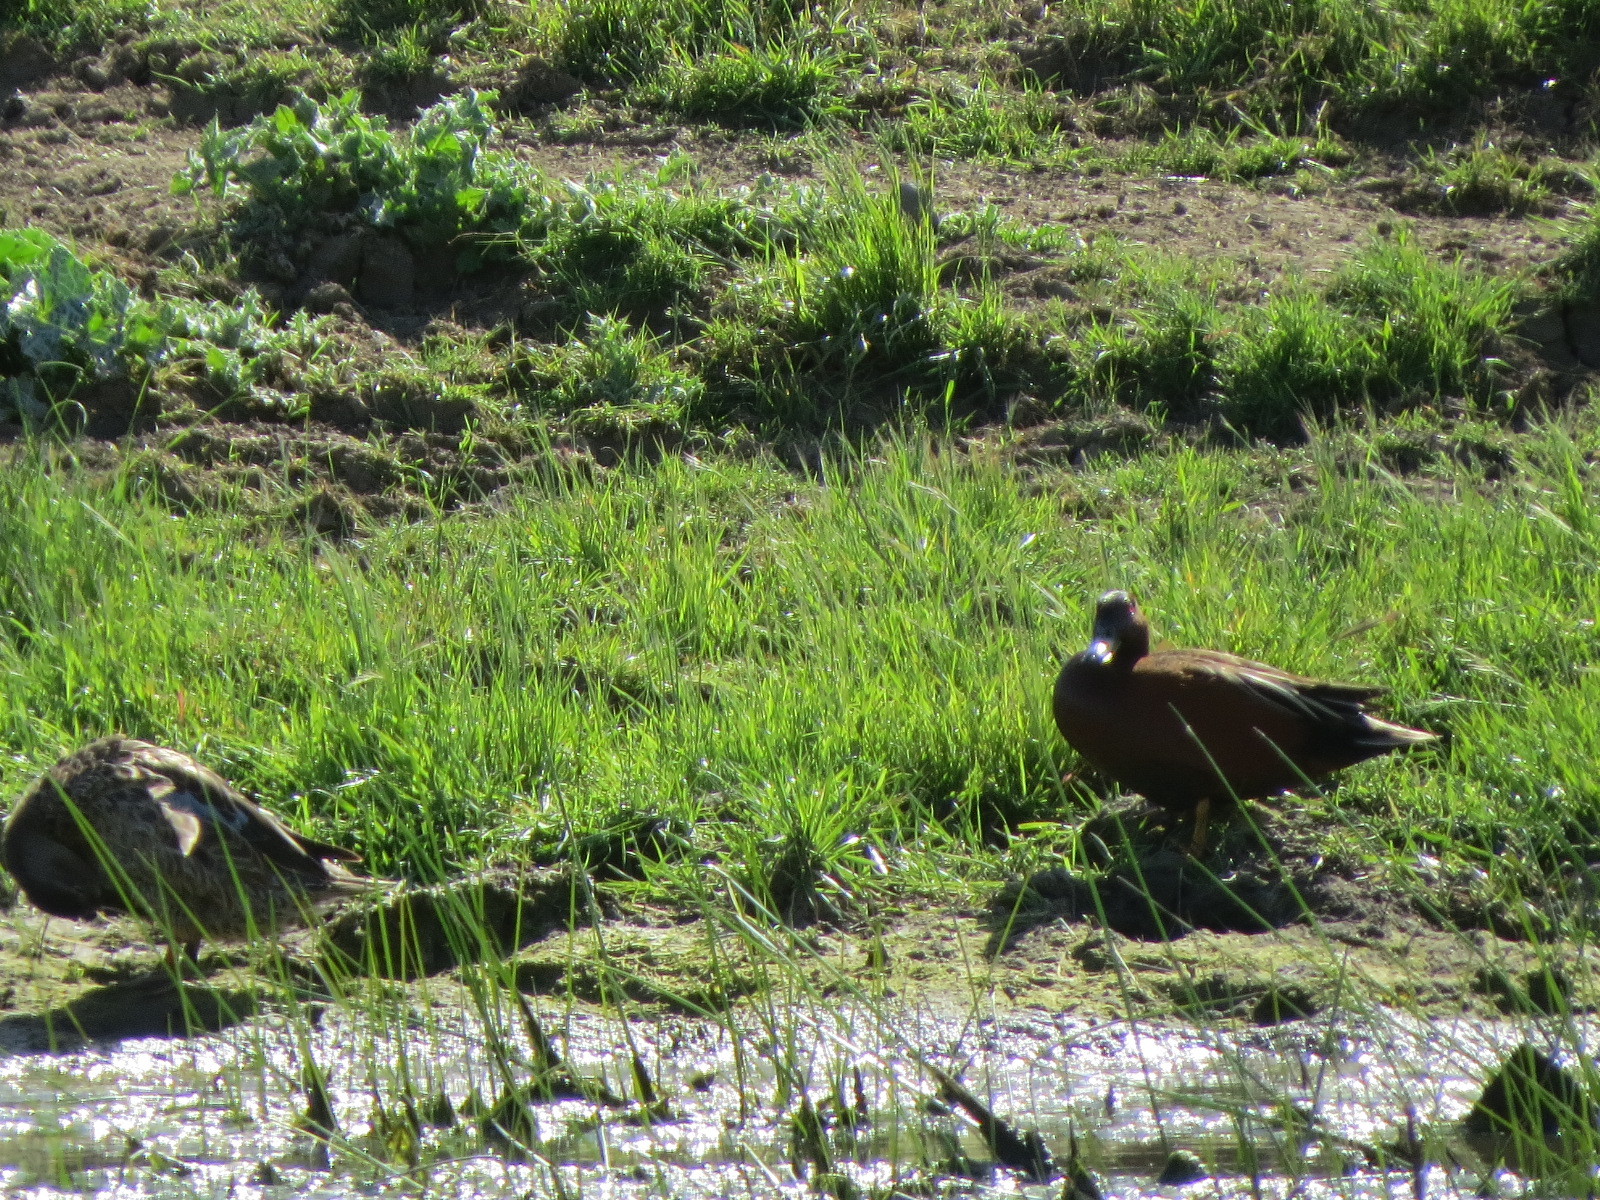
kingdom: Animalia
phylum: Chordata
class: Aves
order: Anseriformes
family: Anatidae
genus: Spatula
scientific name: Spatula cyanoptera
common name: Cinnamon teal
